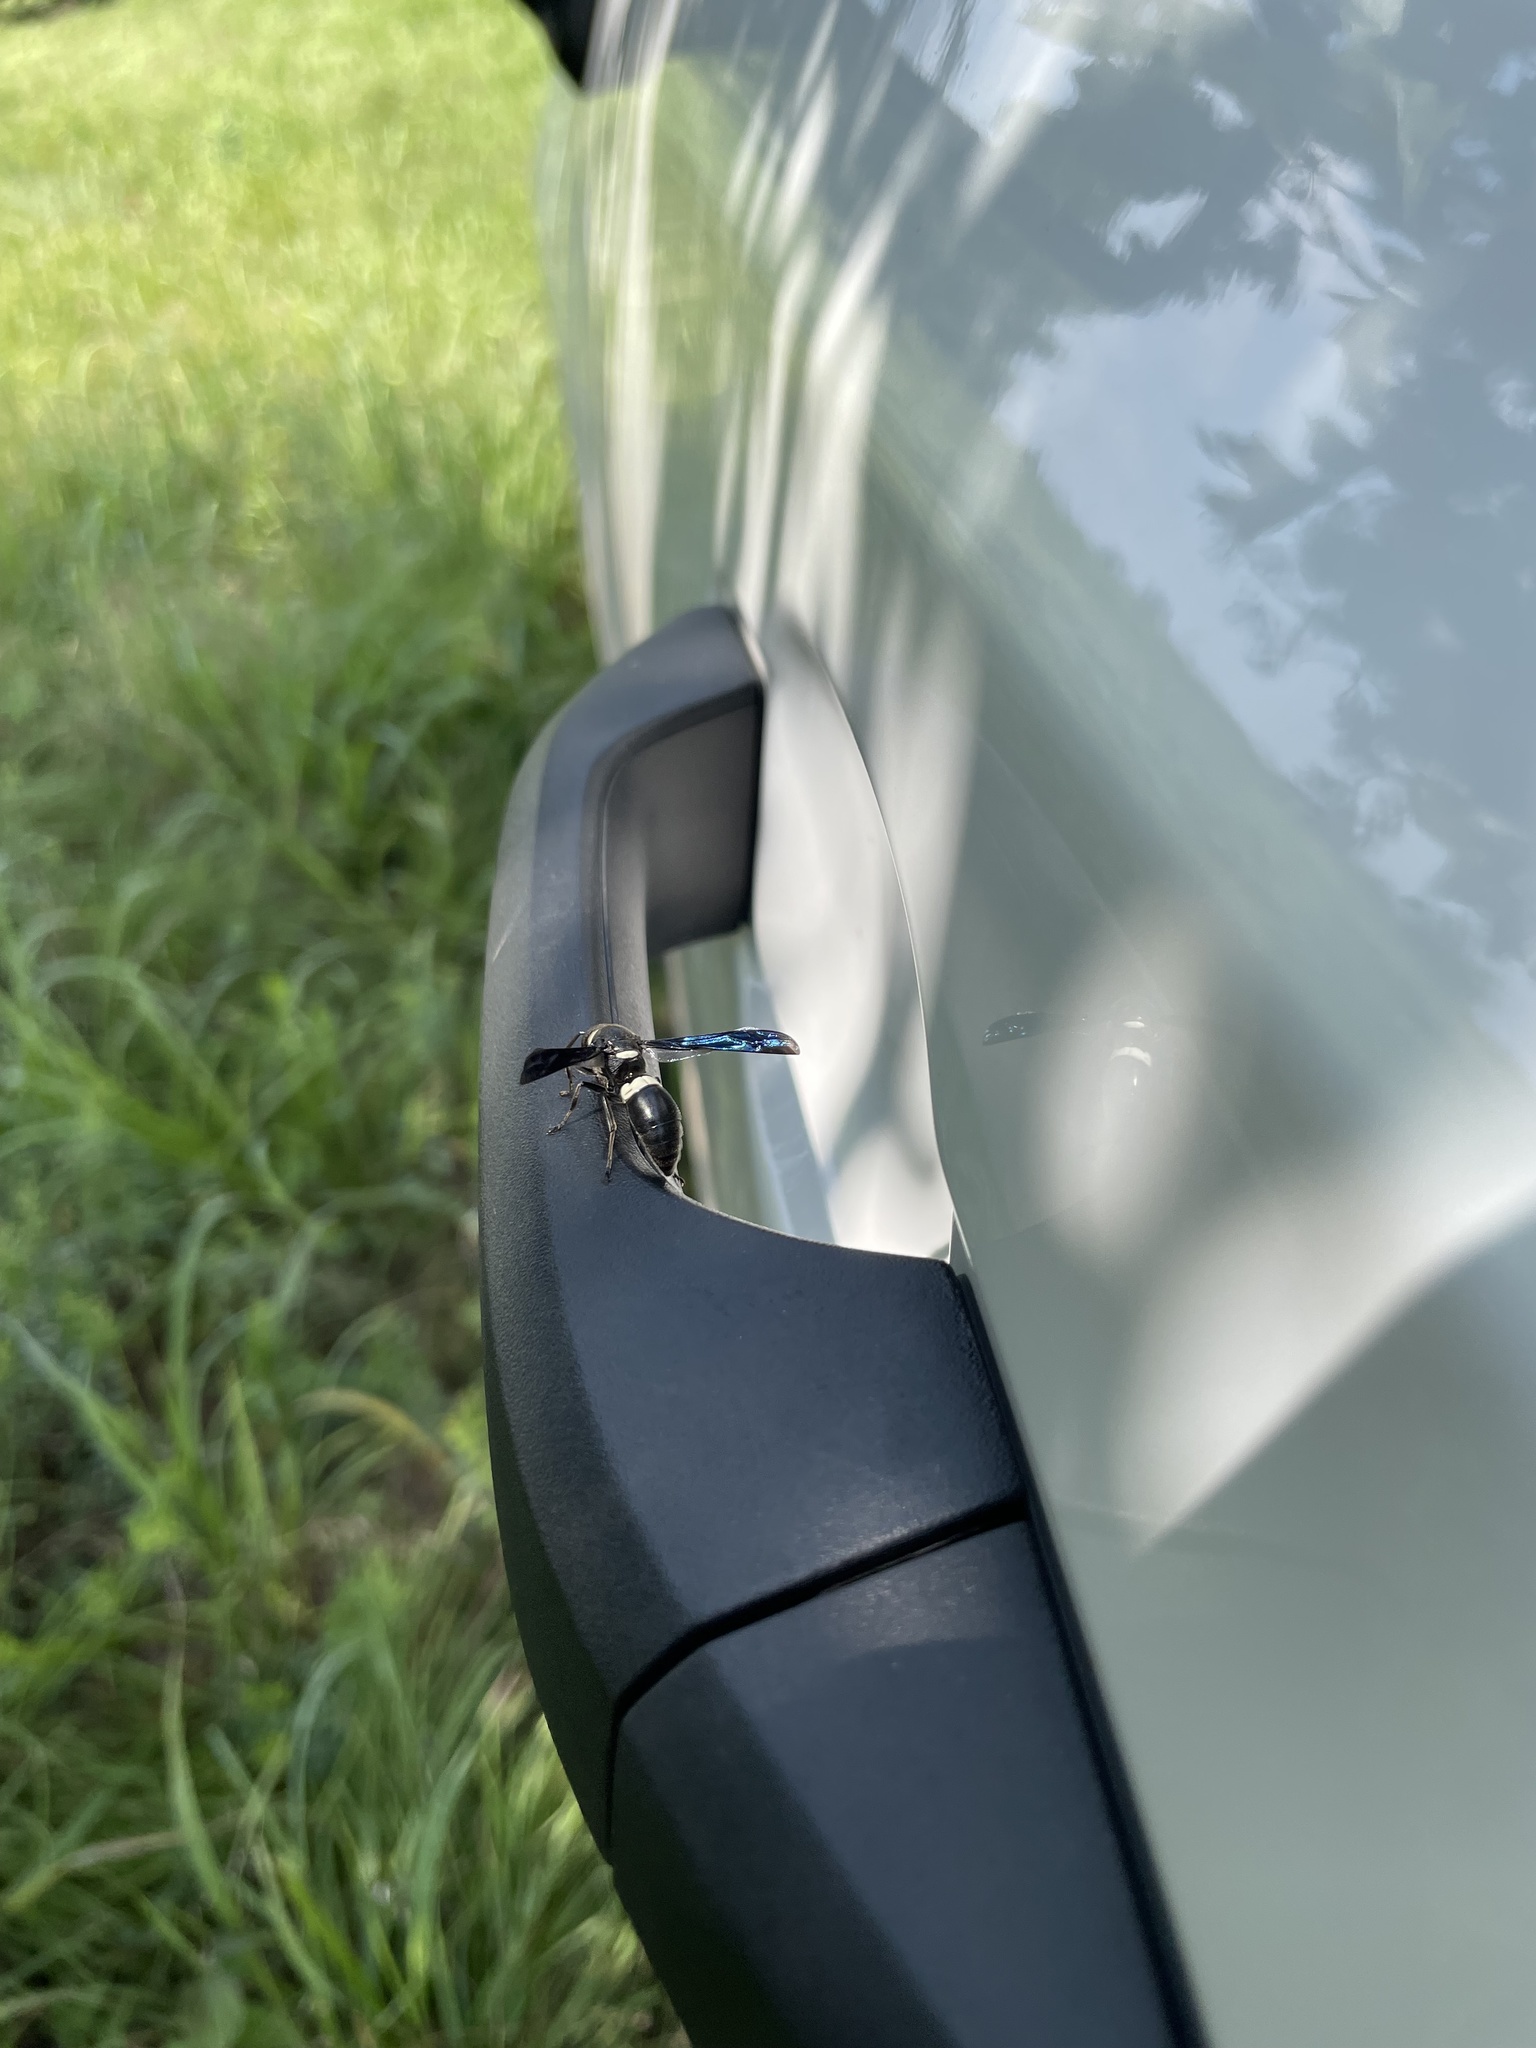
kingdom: Animalia
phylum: Arthropoda
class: Insecta
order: Hymenoptera
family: Eumenidae
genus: Monobia
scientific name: Monobia quadridens
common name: Four-toothed mason wasp
